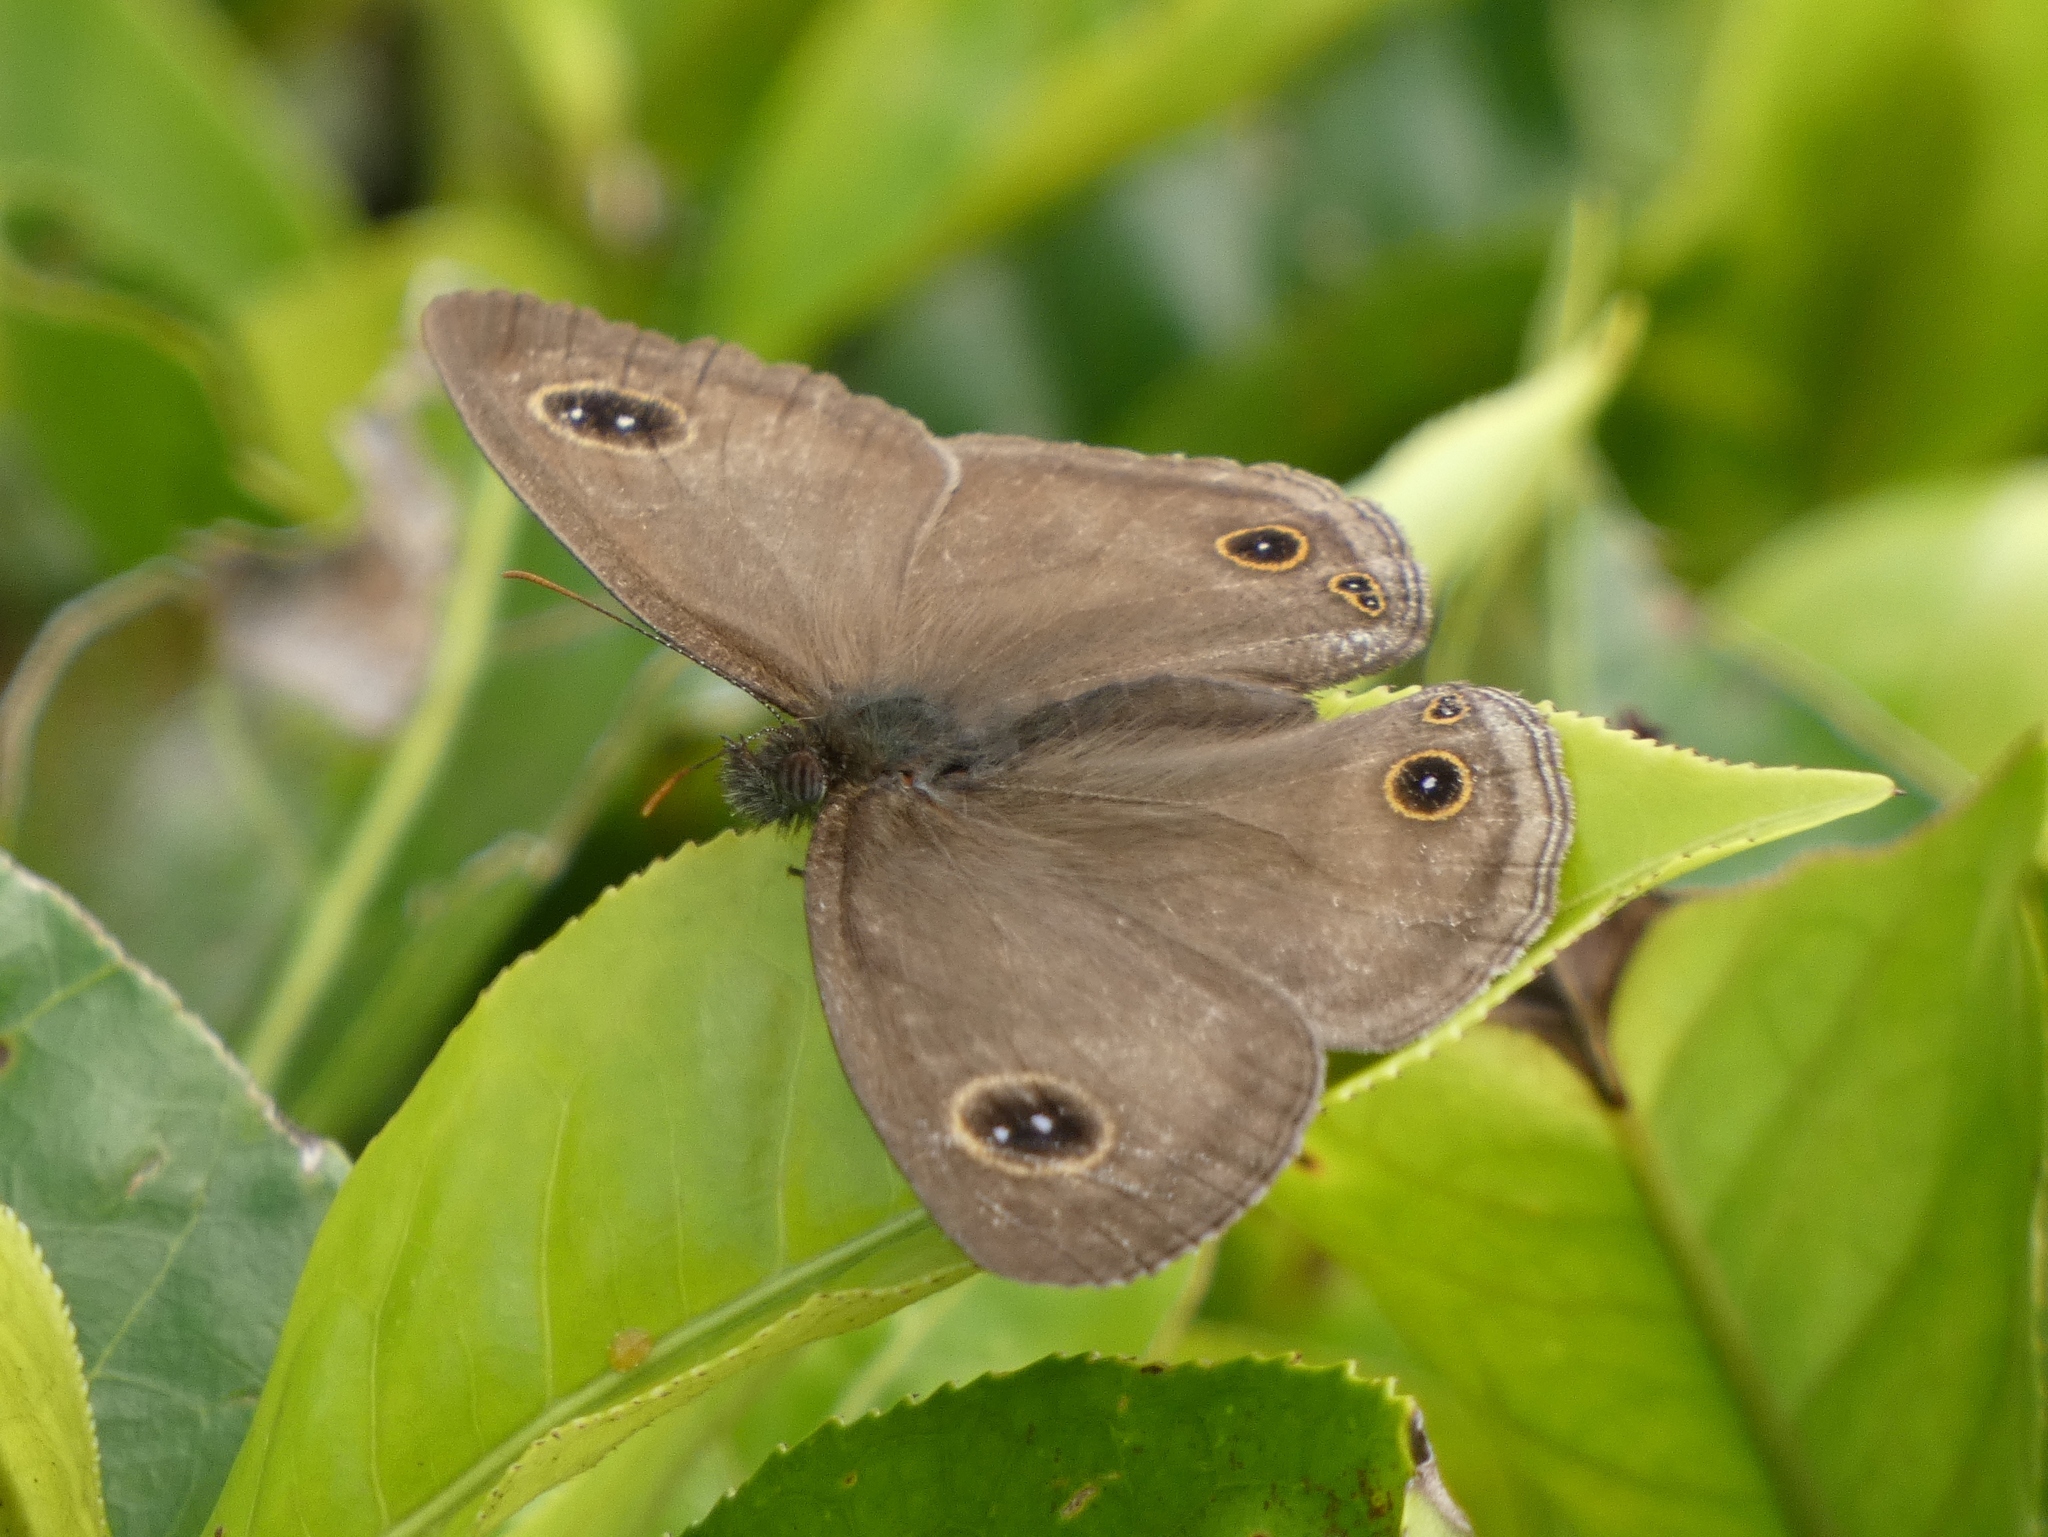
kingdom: Animalia
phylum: Arthropoda
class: Insecta
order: Lepidoptera
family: Nymphalidae
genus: Ypthima
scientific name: Ypthima pandocus
